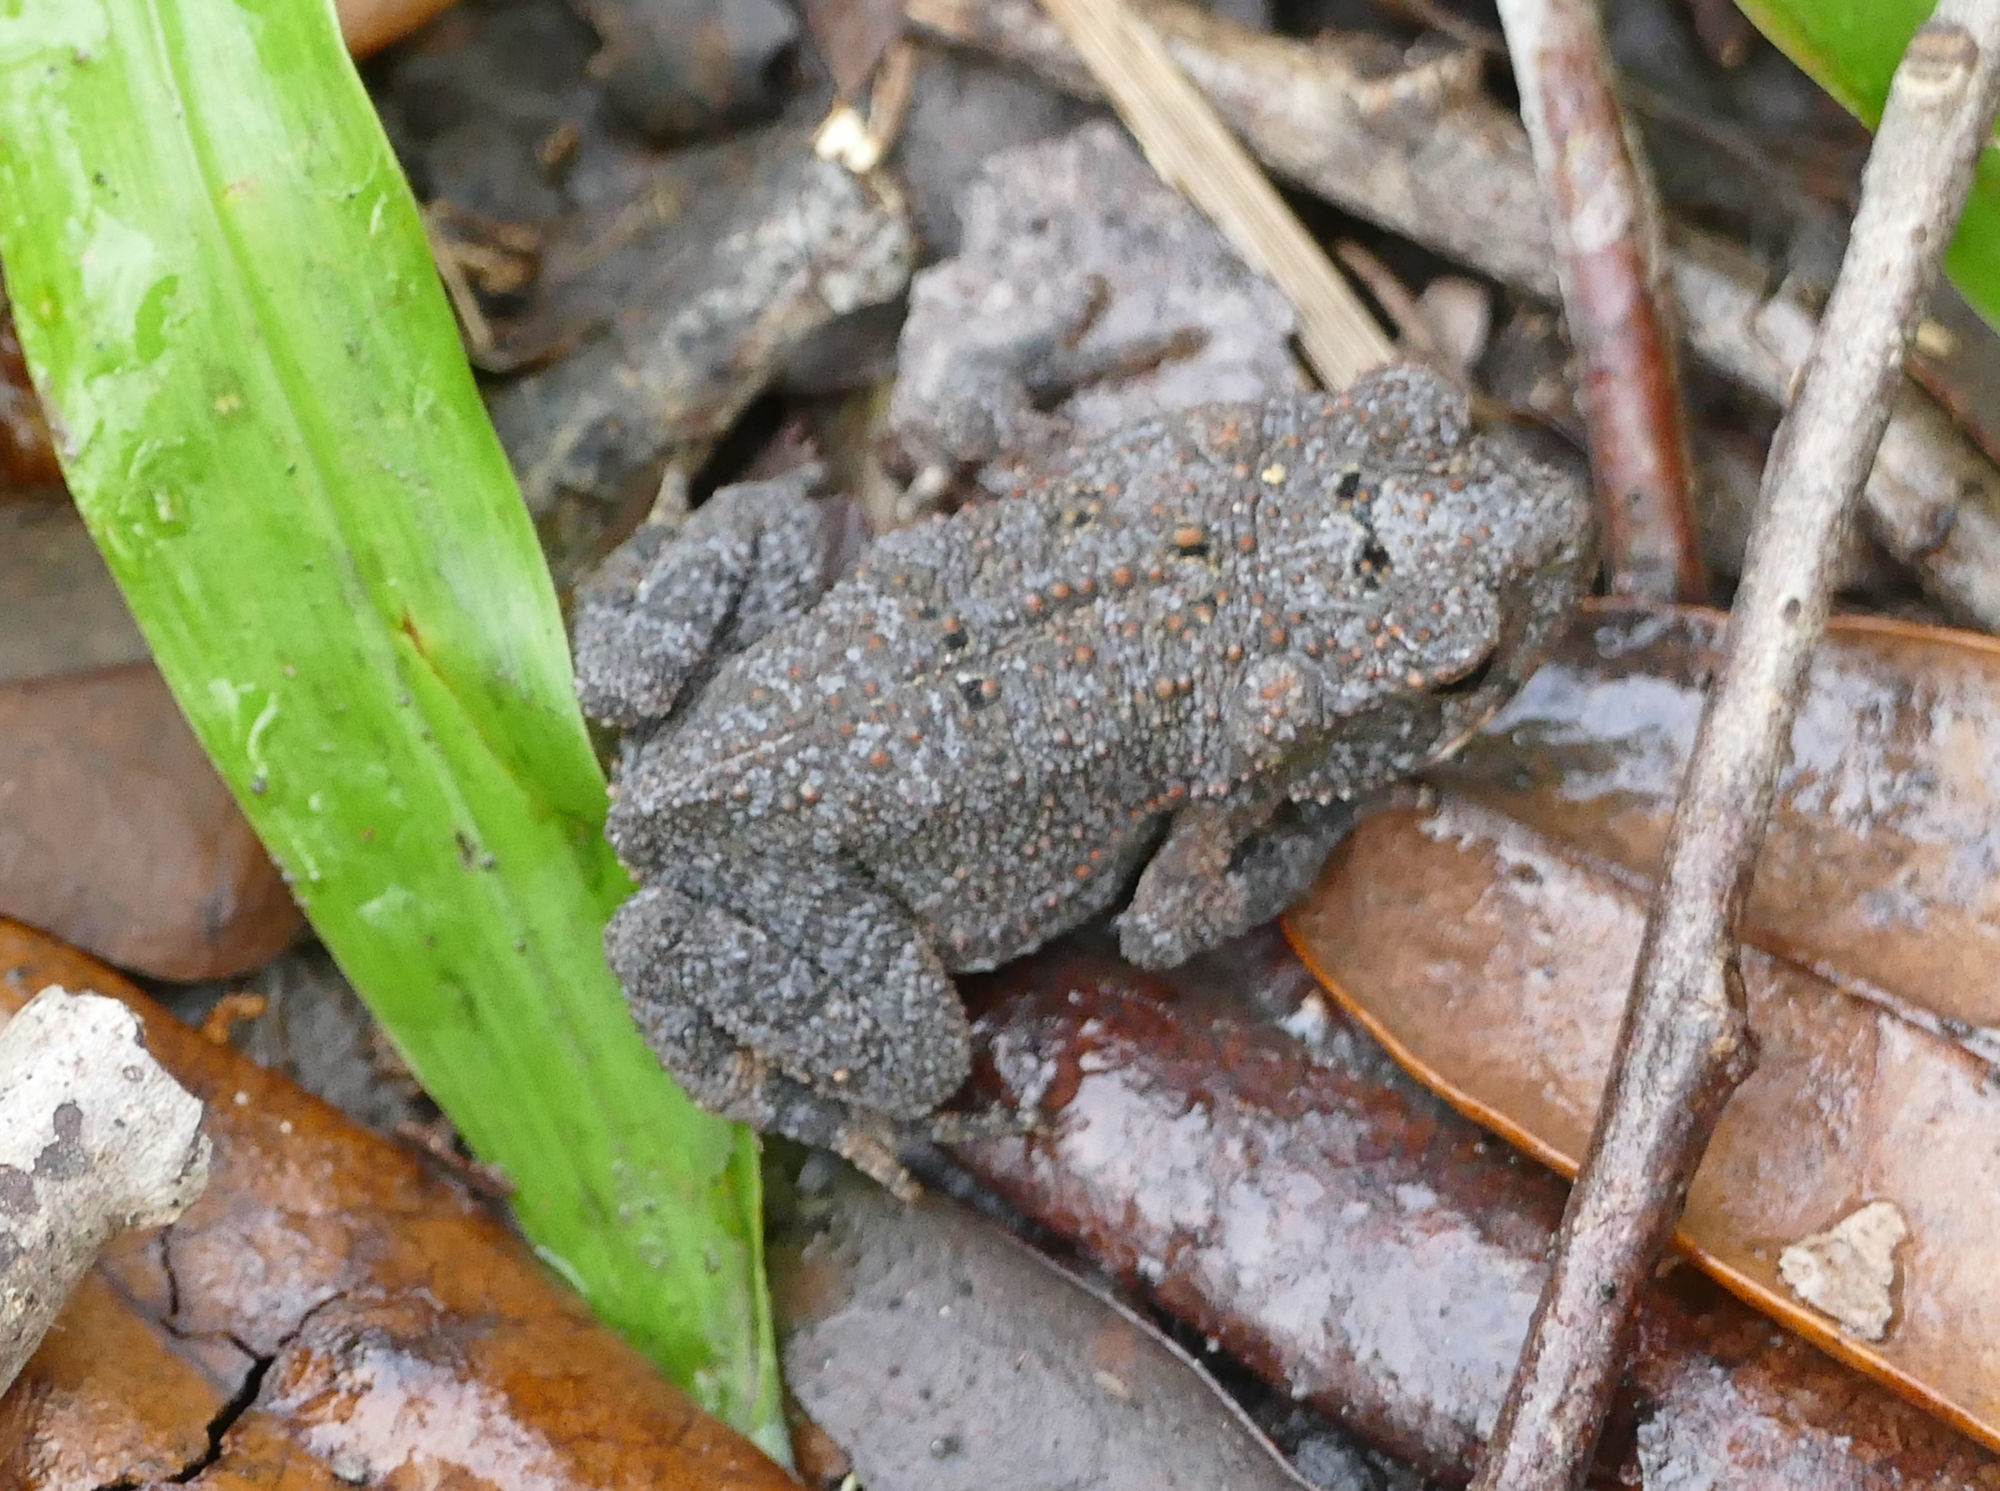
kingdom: Animalia
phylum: Chordata
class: Amphibia
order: Anura
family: Bufonidae
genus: Incilius
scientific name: Incilius nebulifer
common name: Gulf coast toad
